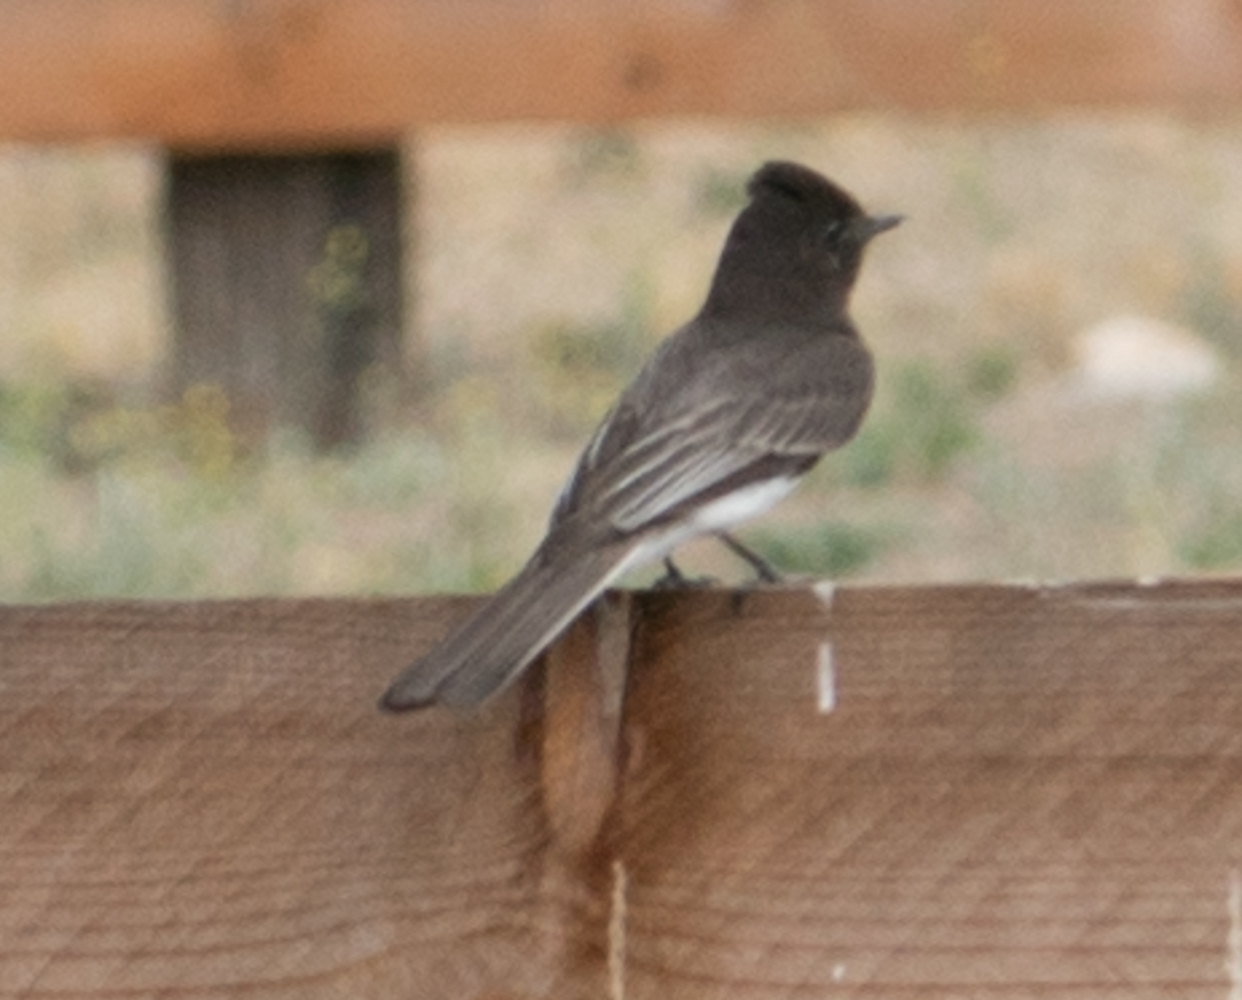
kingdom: Animalia
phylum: Chordata
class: Aves
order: Passeriformes
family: Tyrannidae
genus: Sayornis
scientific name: Sayornis nigricans
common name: Black phoebe
